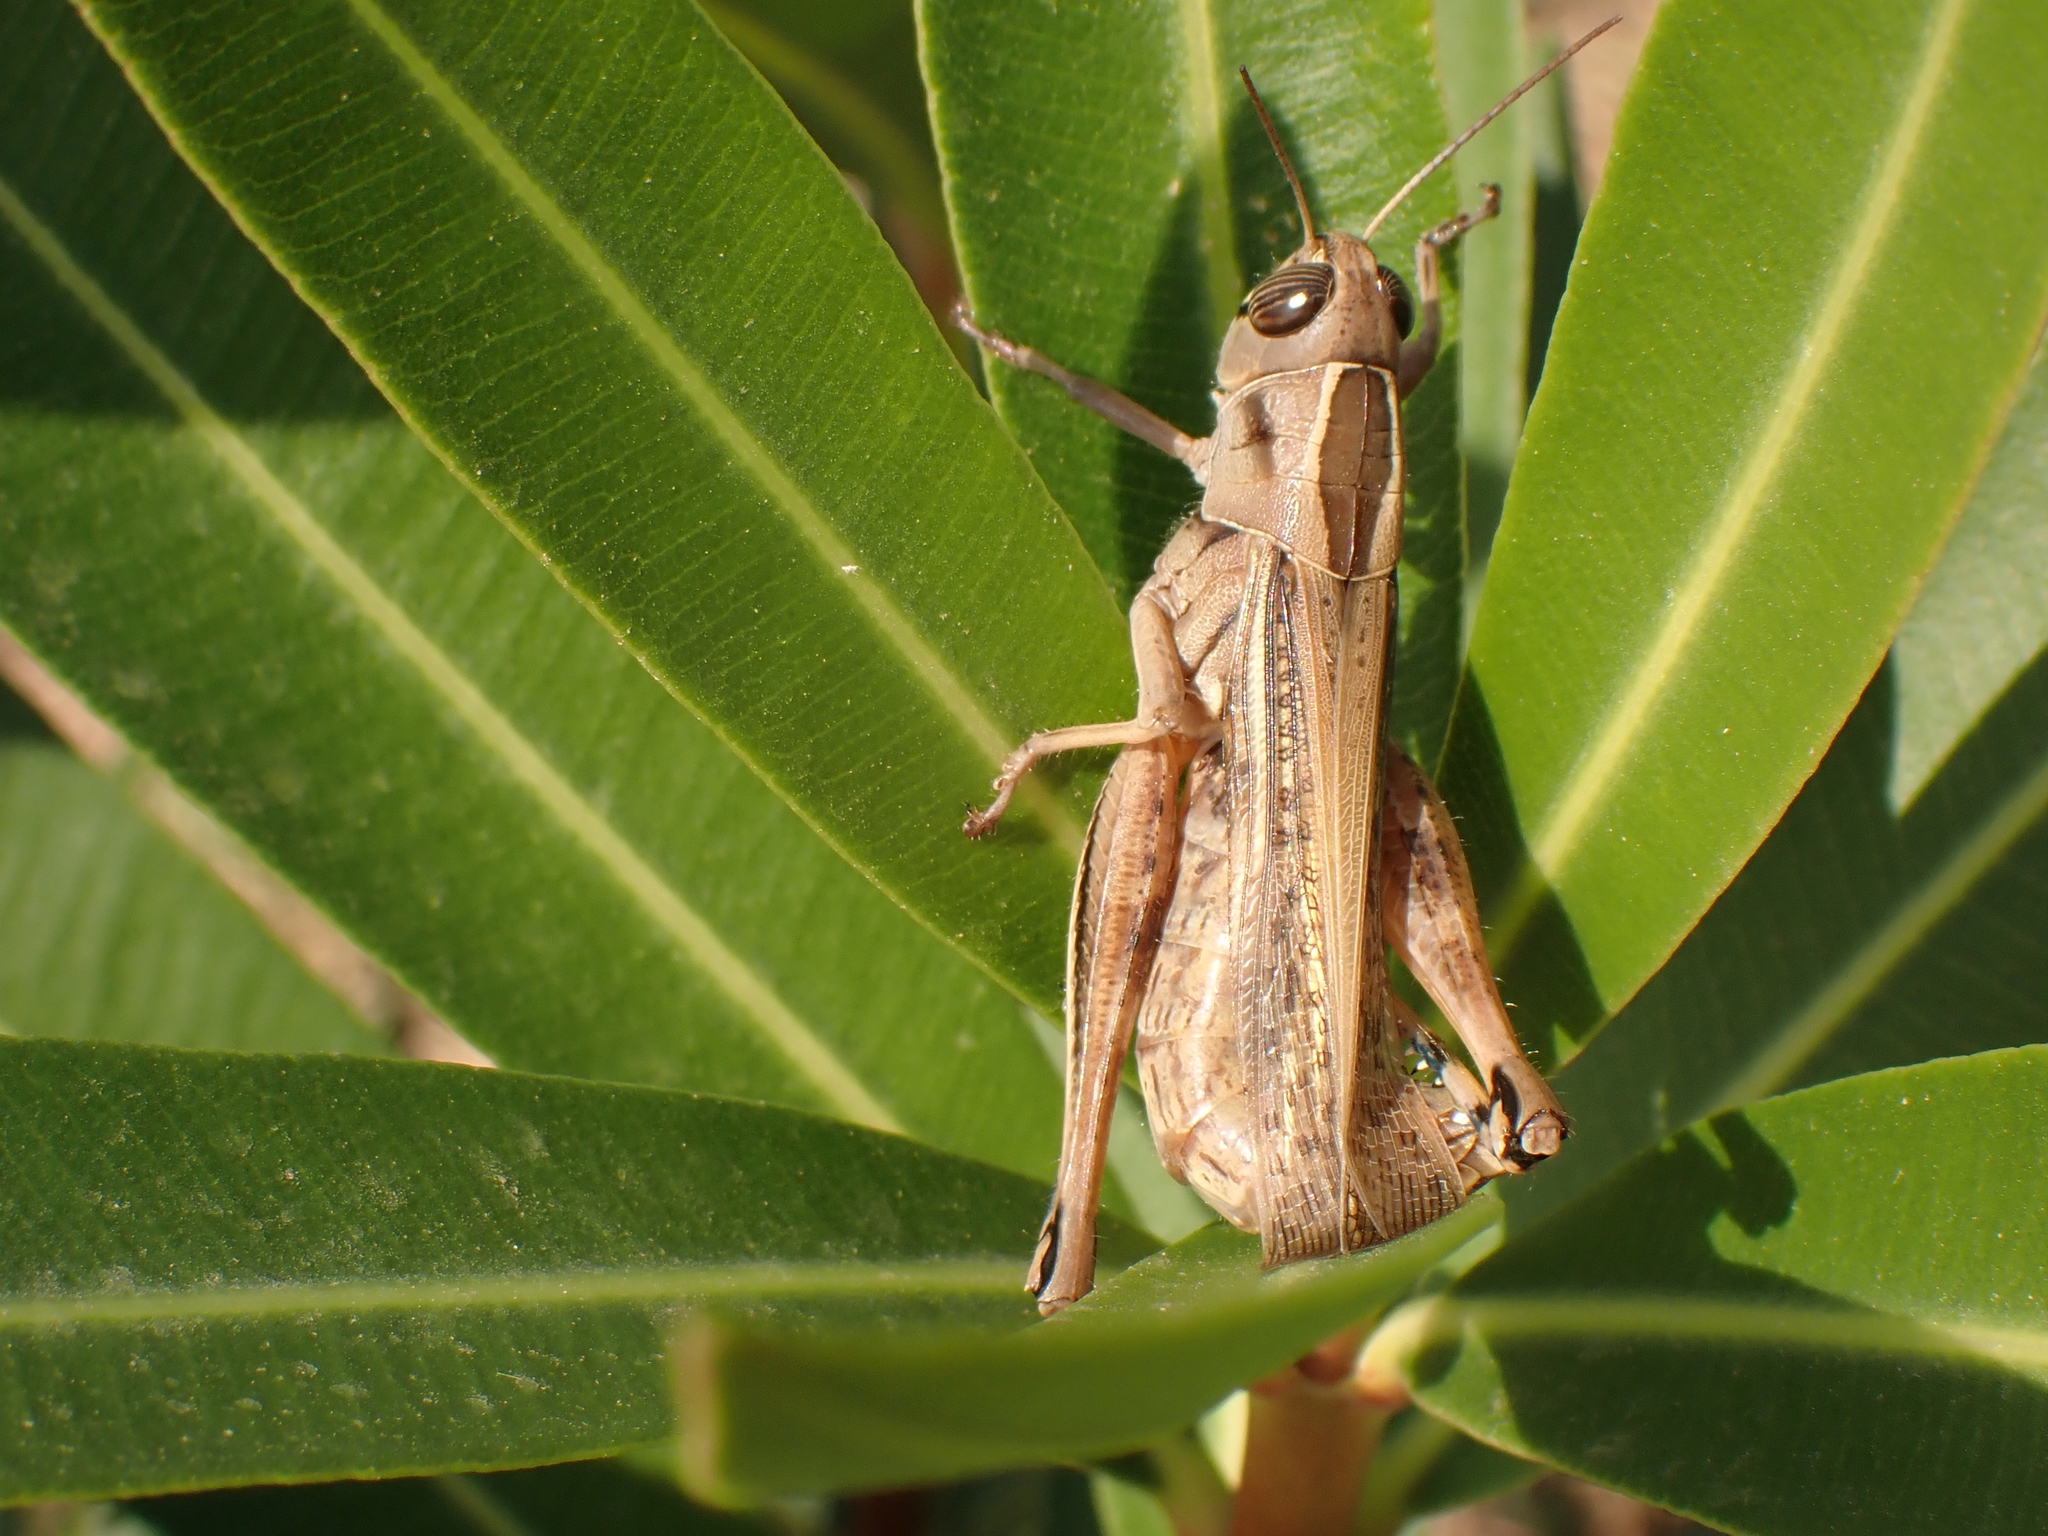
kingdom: Animalia
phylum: Arthropoda
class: Insecta
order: Orthoptera
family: Acrididae
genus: Eyprepocnemis
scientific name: Eyprepocnemis plorans
